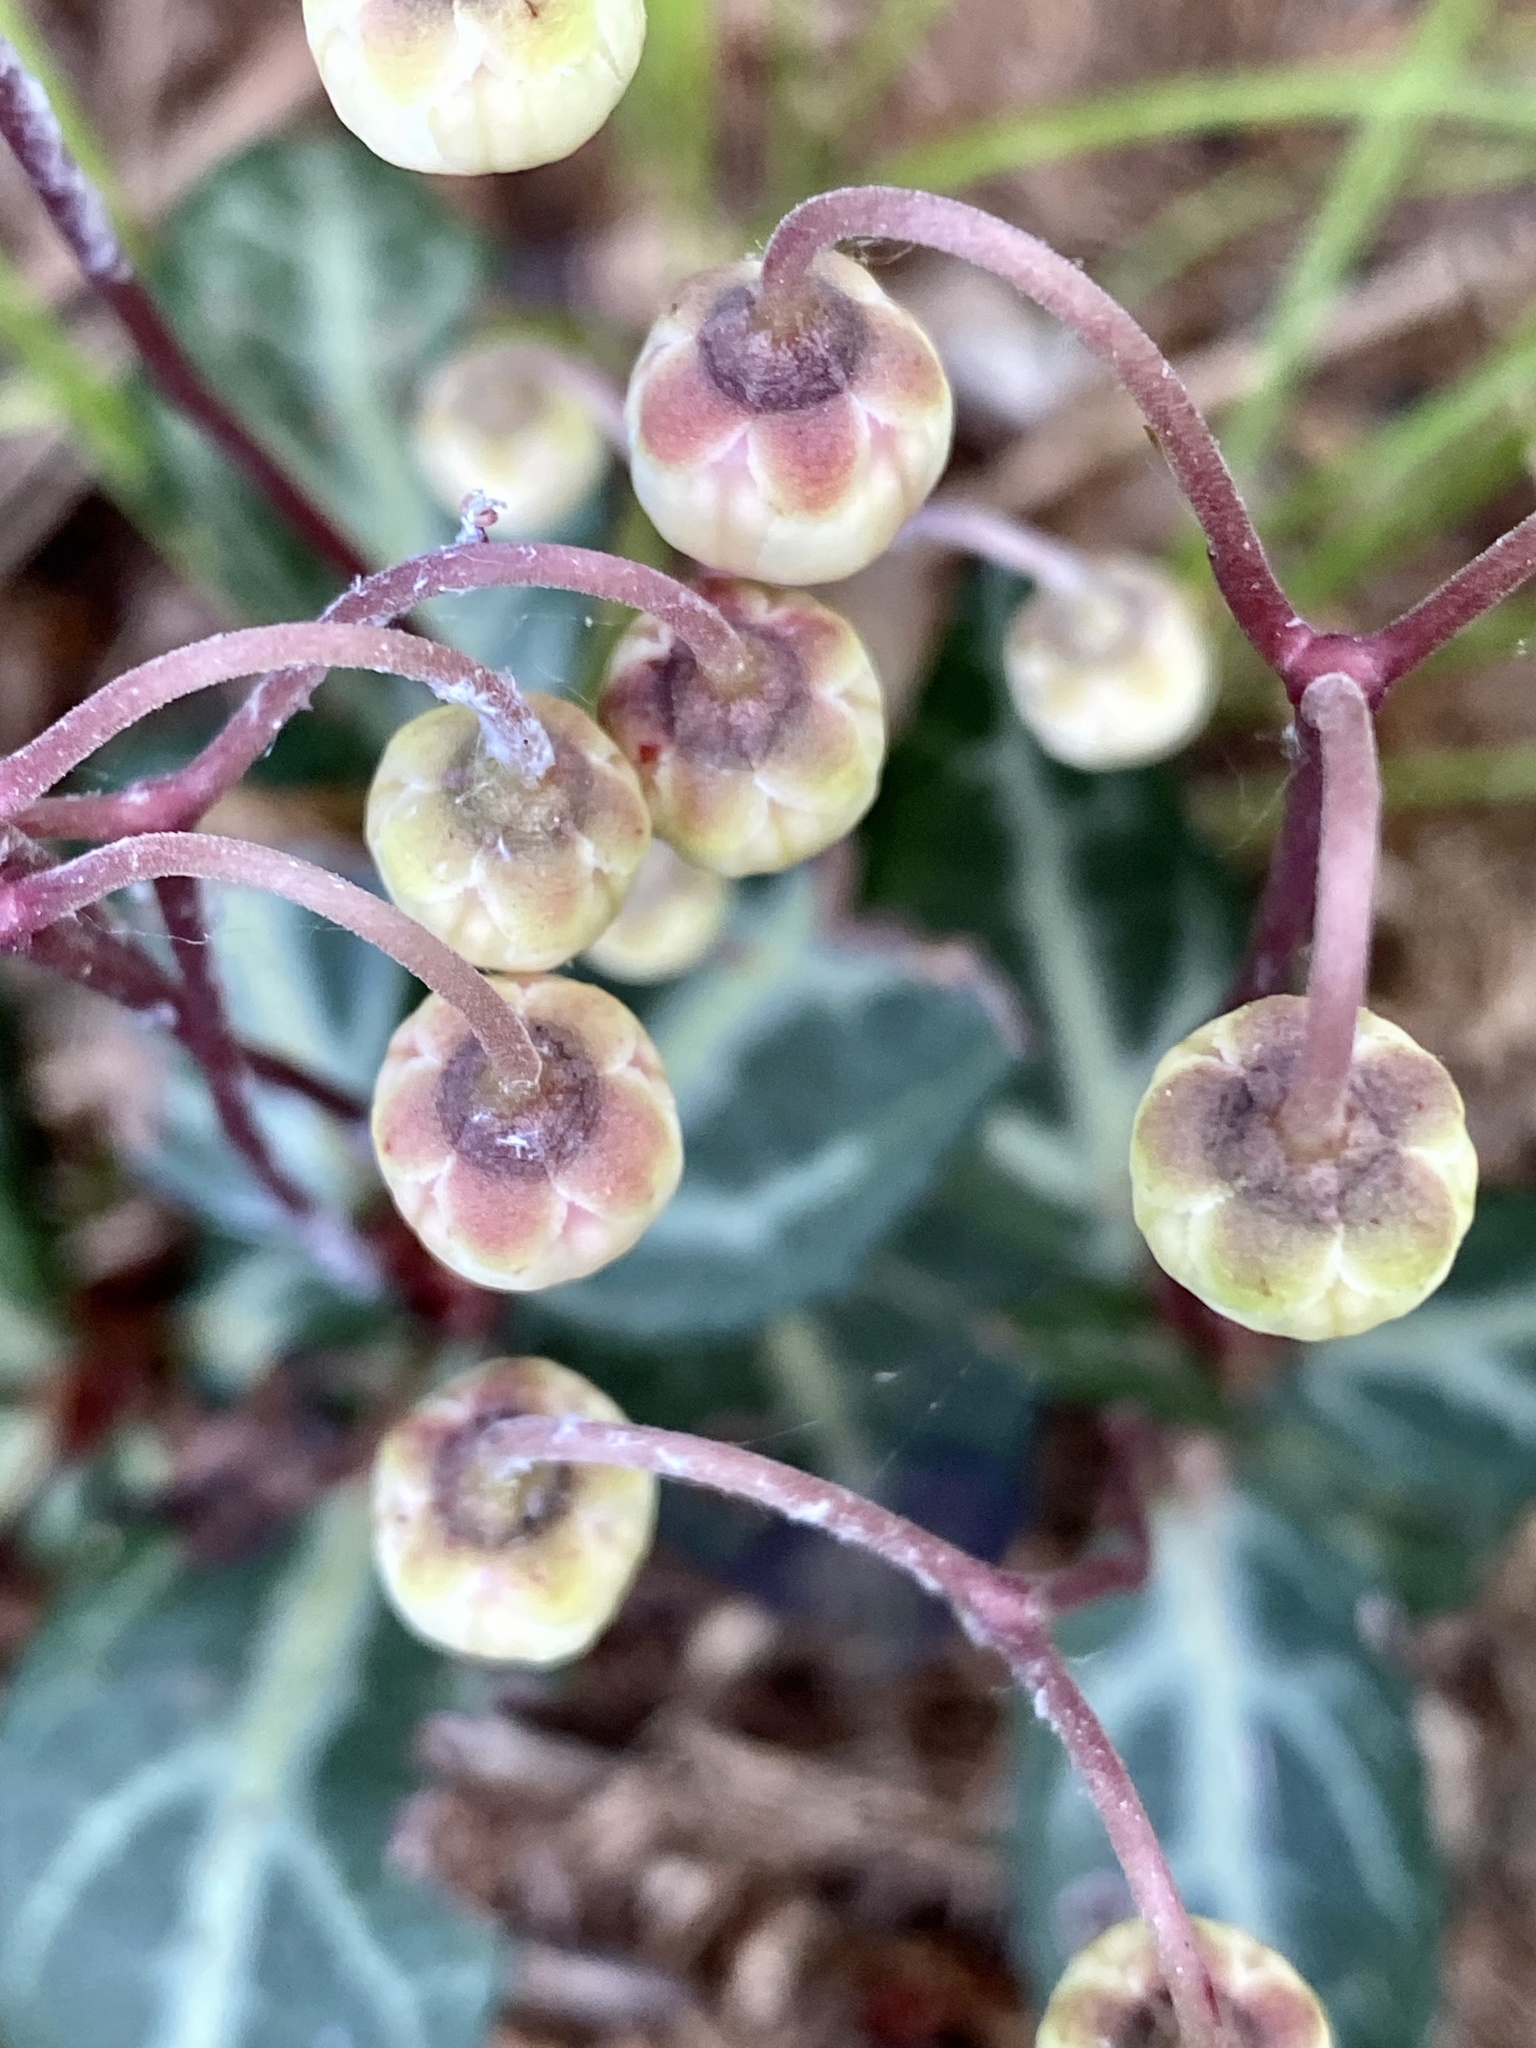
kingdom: Plantae
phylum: Tracheophyta
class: Magnoliopsida
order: Ericales
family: Ericaceae
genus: Chimaphila
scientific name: Chimaphila maculata
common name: Spotted pipsissewa
